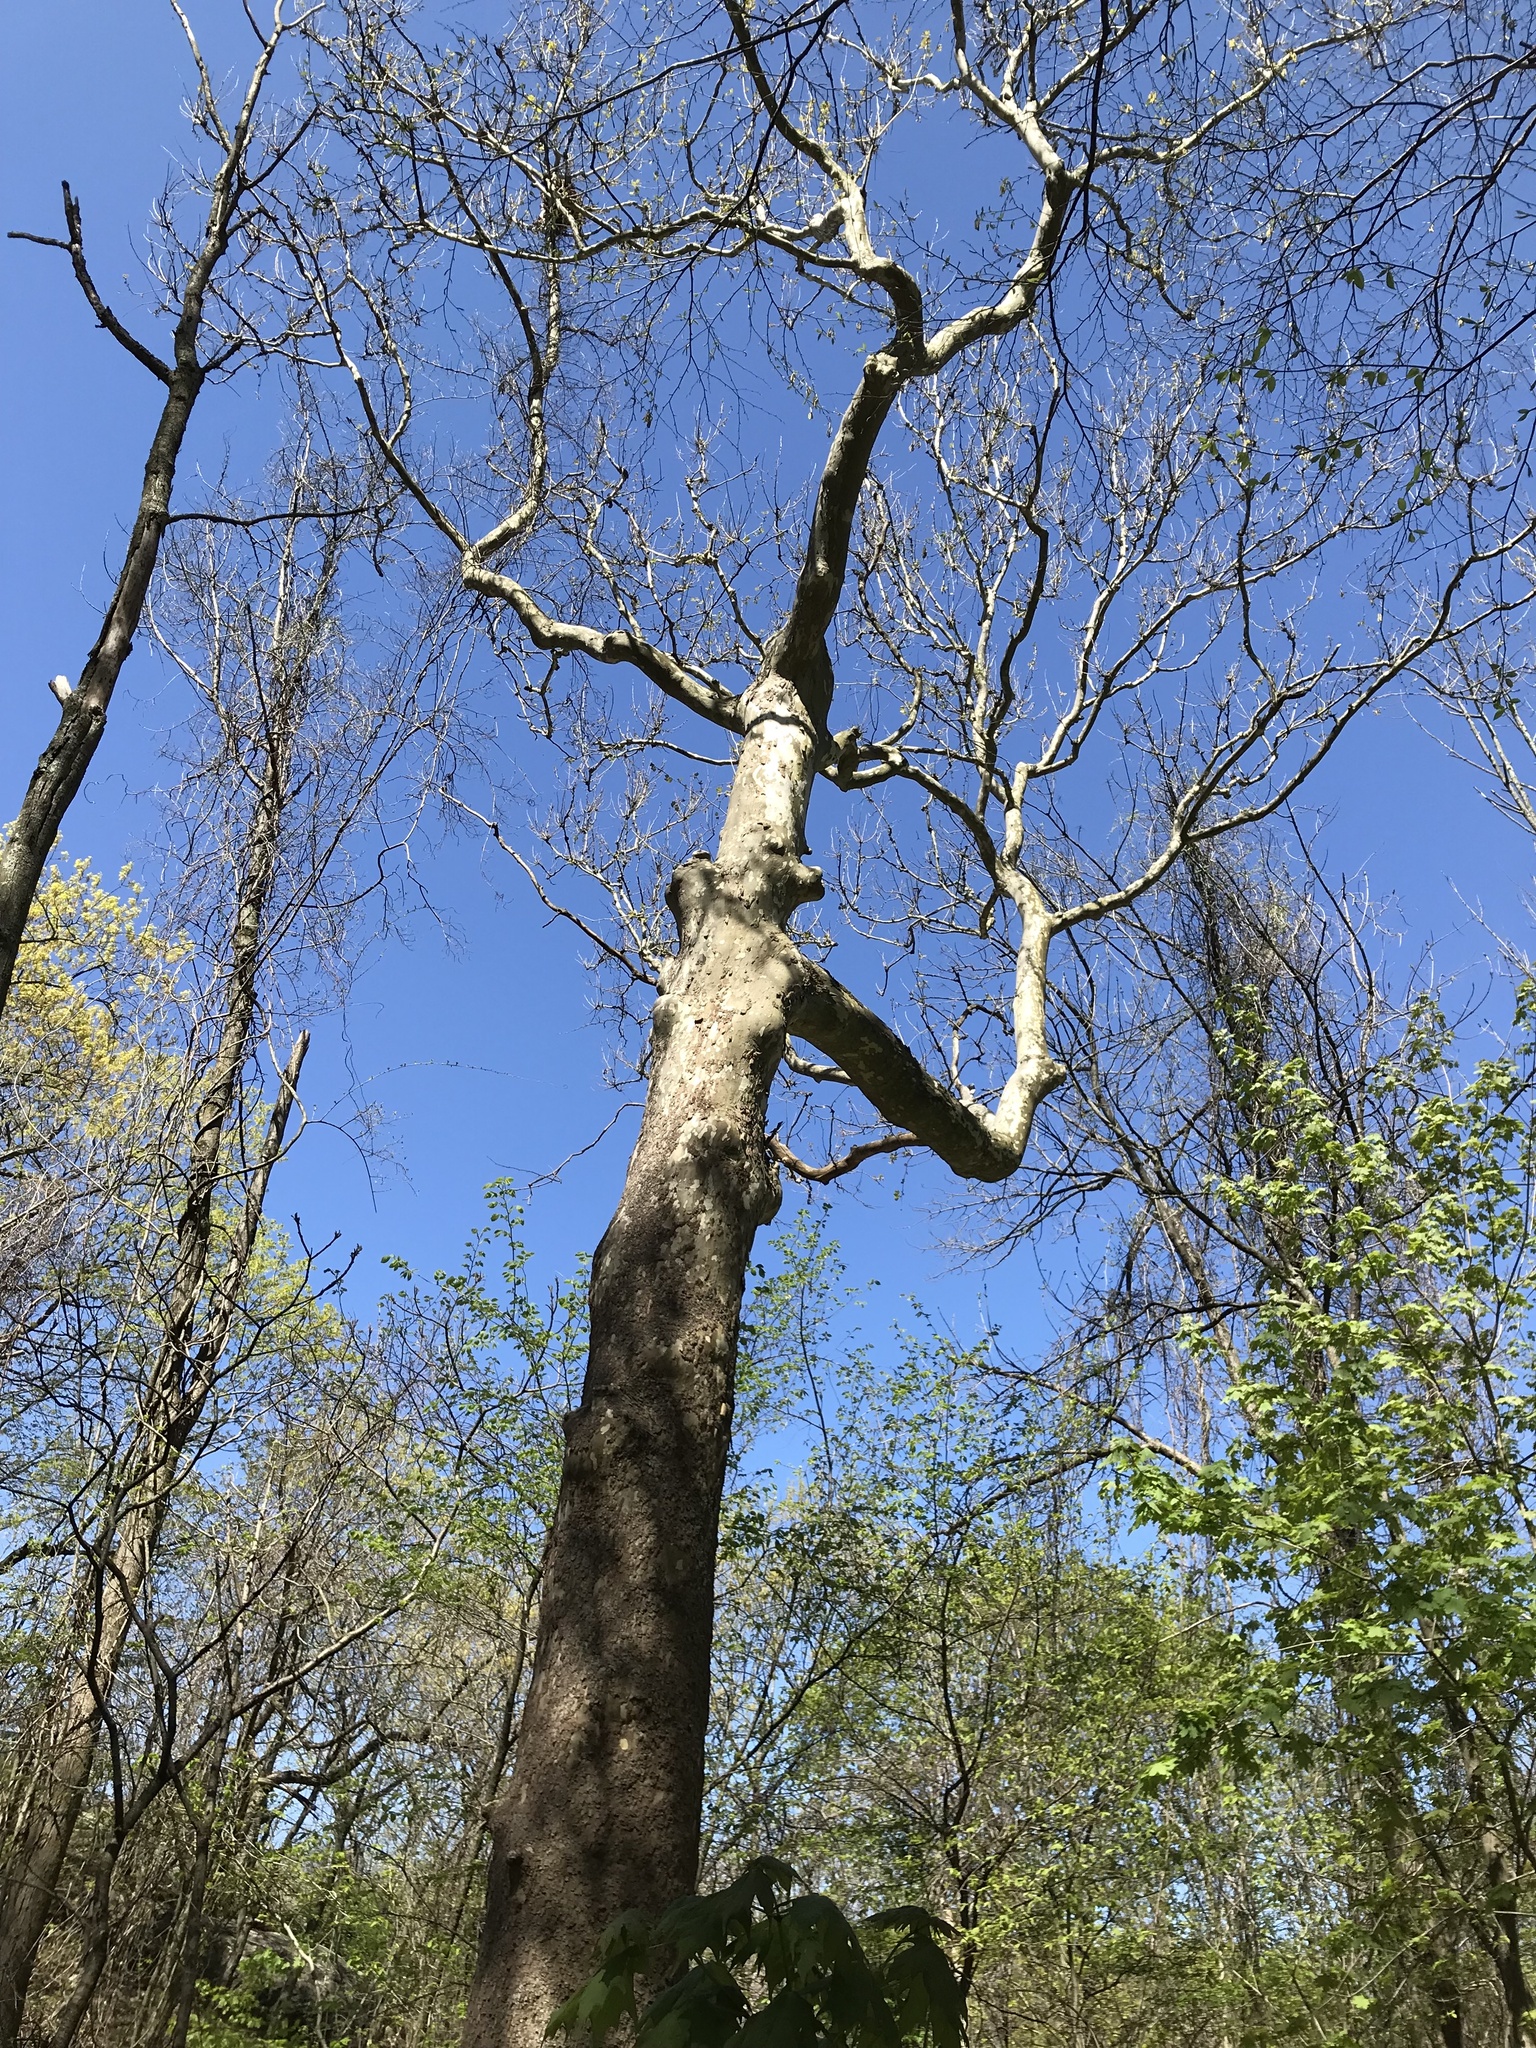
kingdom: Plantae
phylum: Tracheophyta
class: Magnoliopsida
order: Proteales
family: Platanaceae
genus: Platanus
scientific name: Platanus occidentalis
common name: American sycamore
